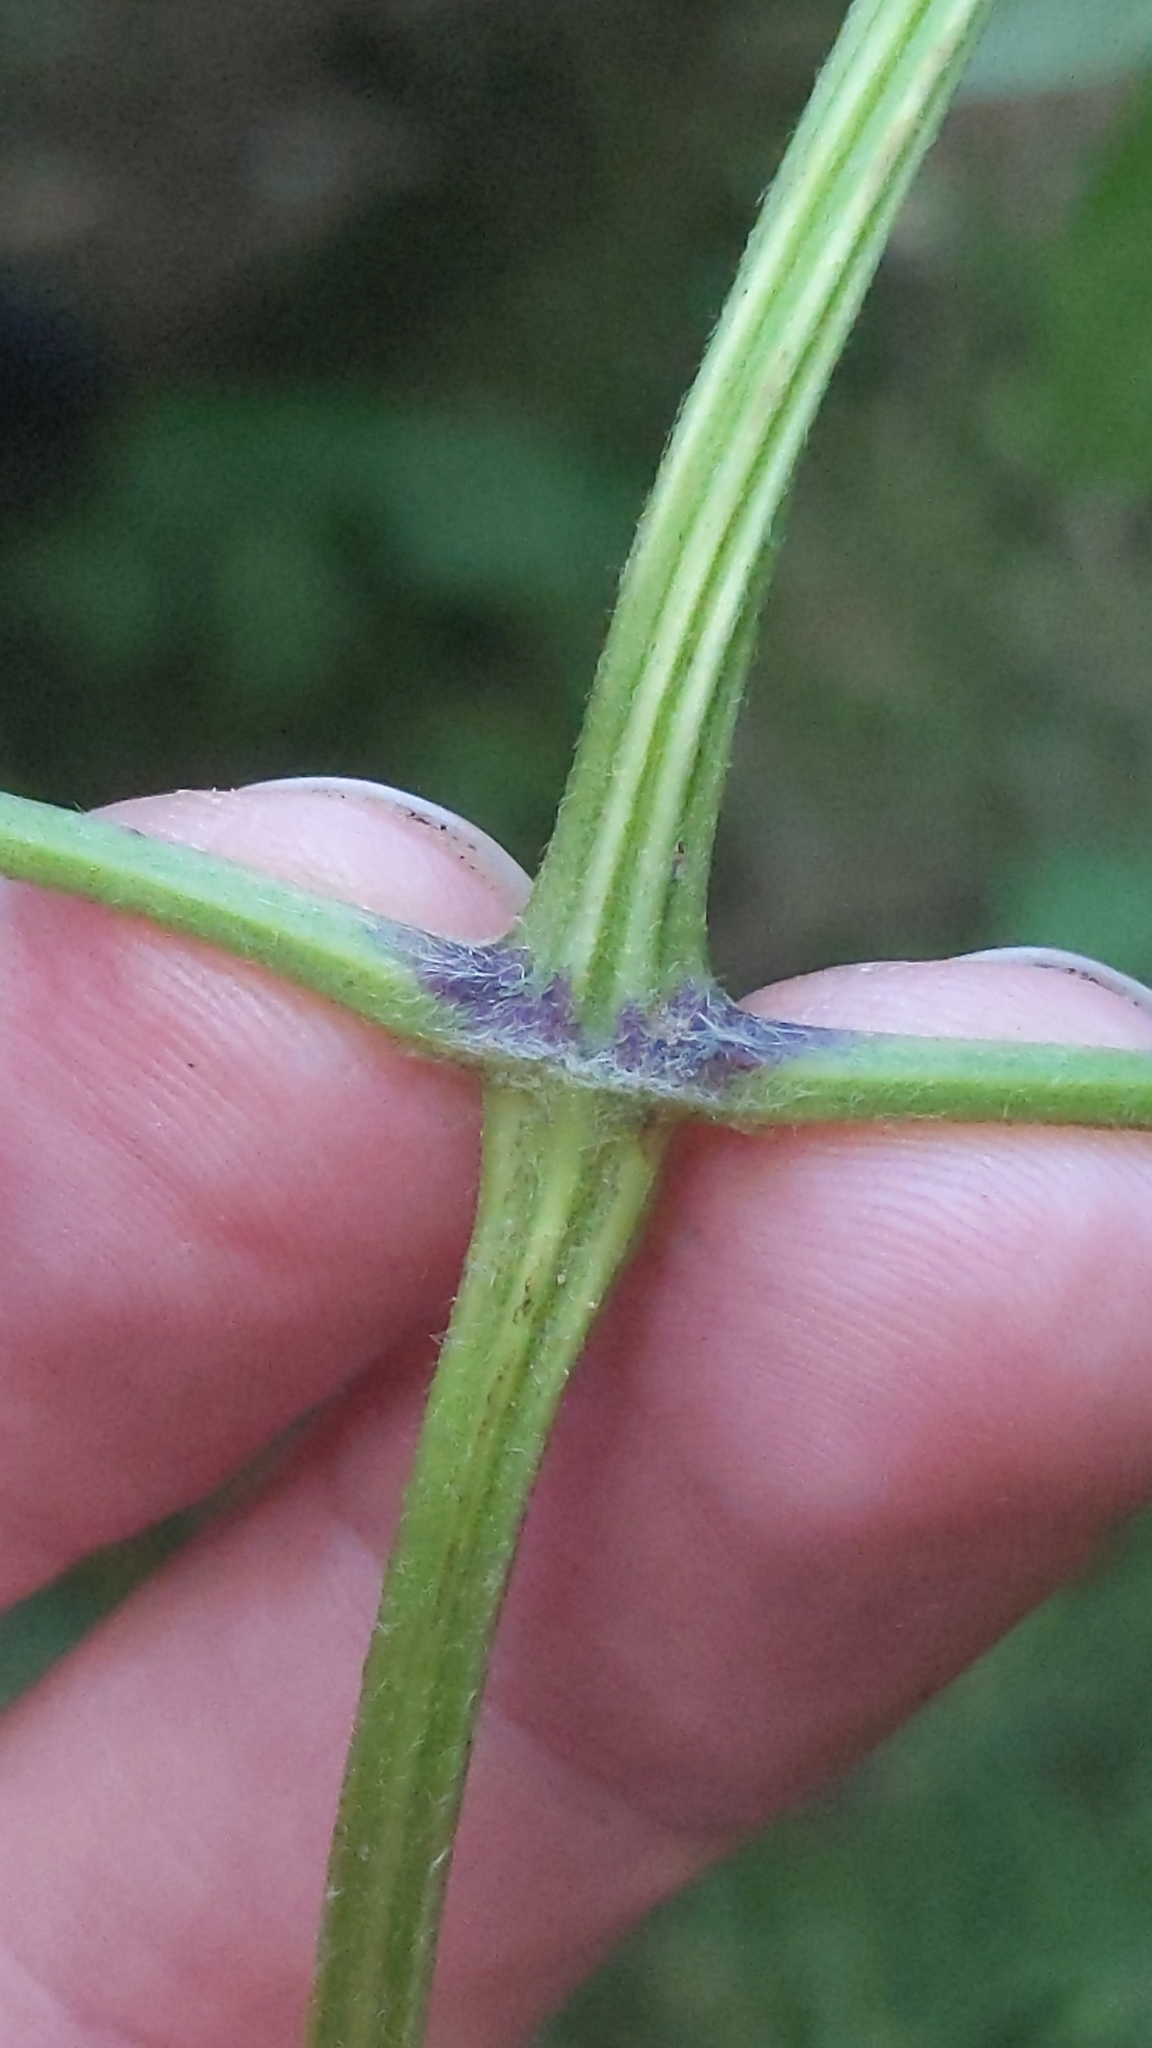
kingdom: Plantae
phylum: Tracheophyta
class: Magnoliopsida
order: Ranunculales
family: Ranunculaceae
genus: Clematis
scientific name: Clematis vitalba
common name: Evergreen clematis
